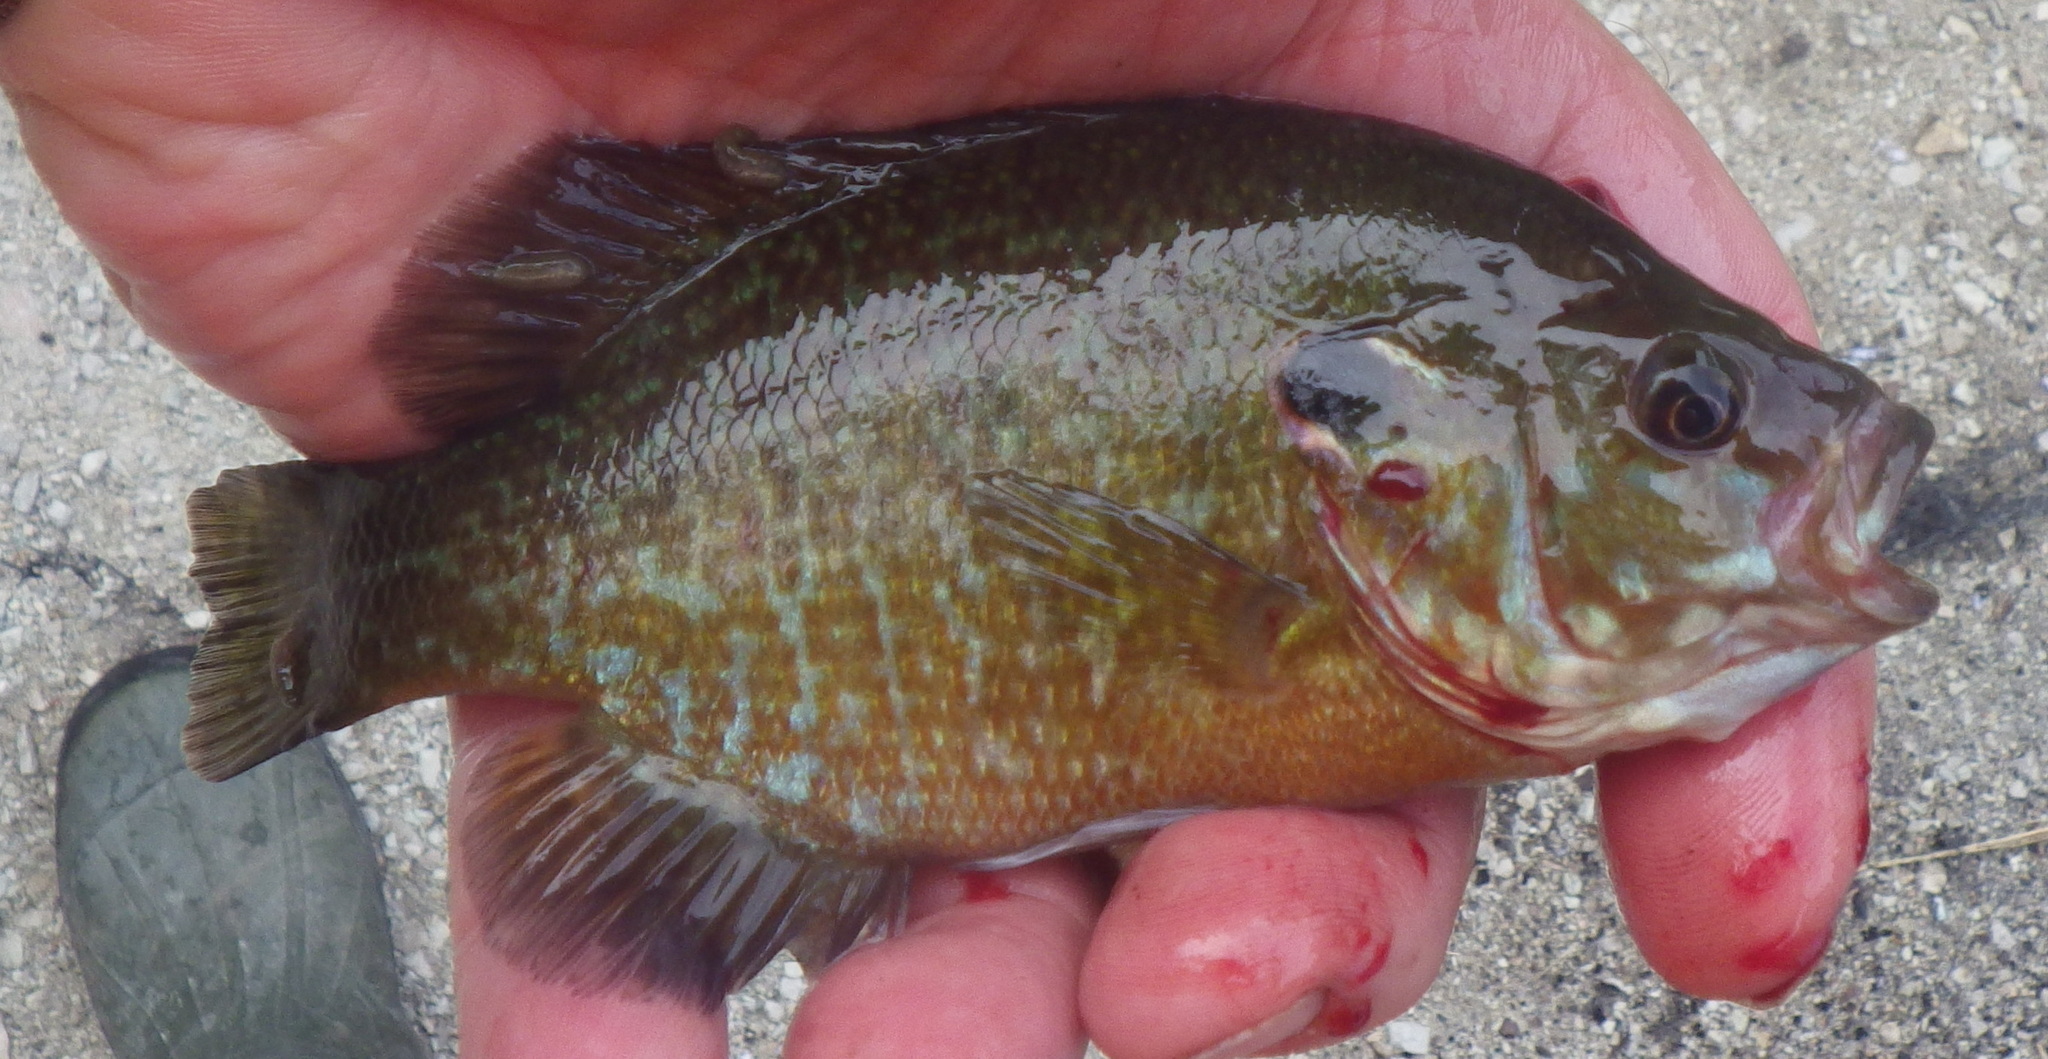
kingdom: Animalia
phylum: Chordata
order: Perciformes
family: Centrarchidae
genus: Lepomis
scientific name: Lepomis
